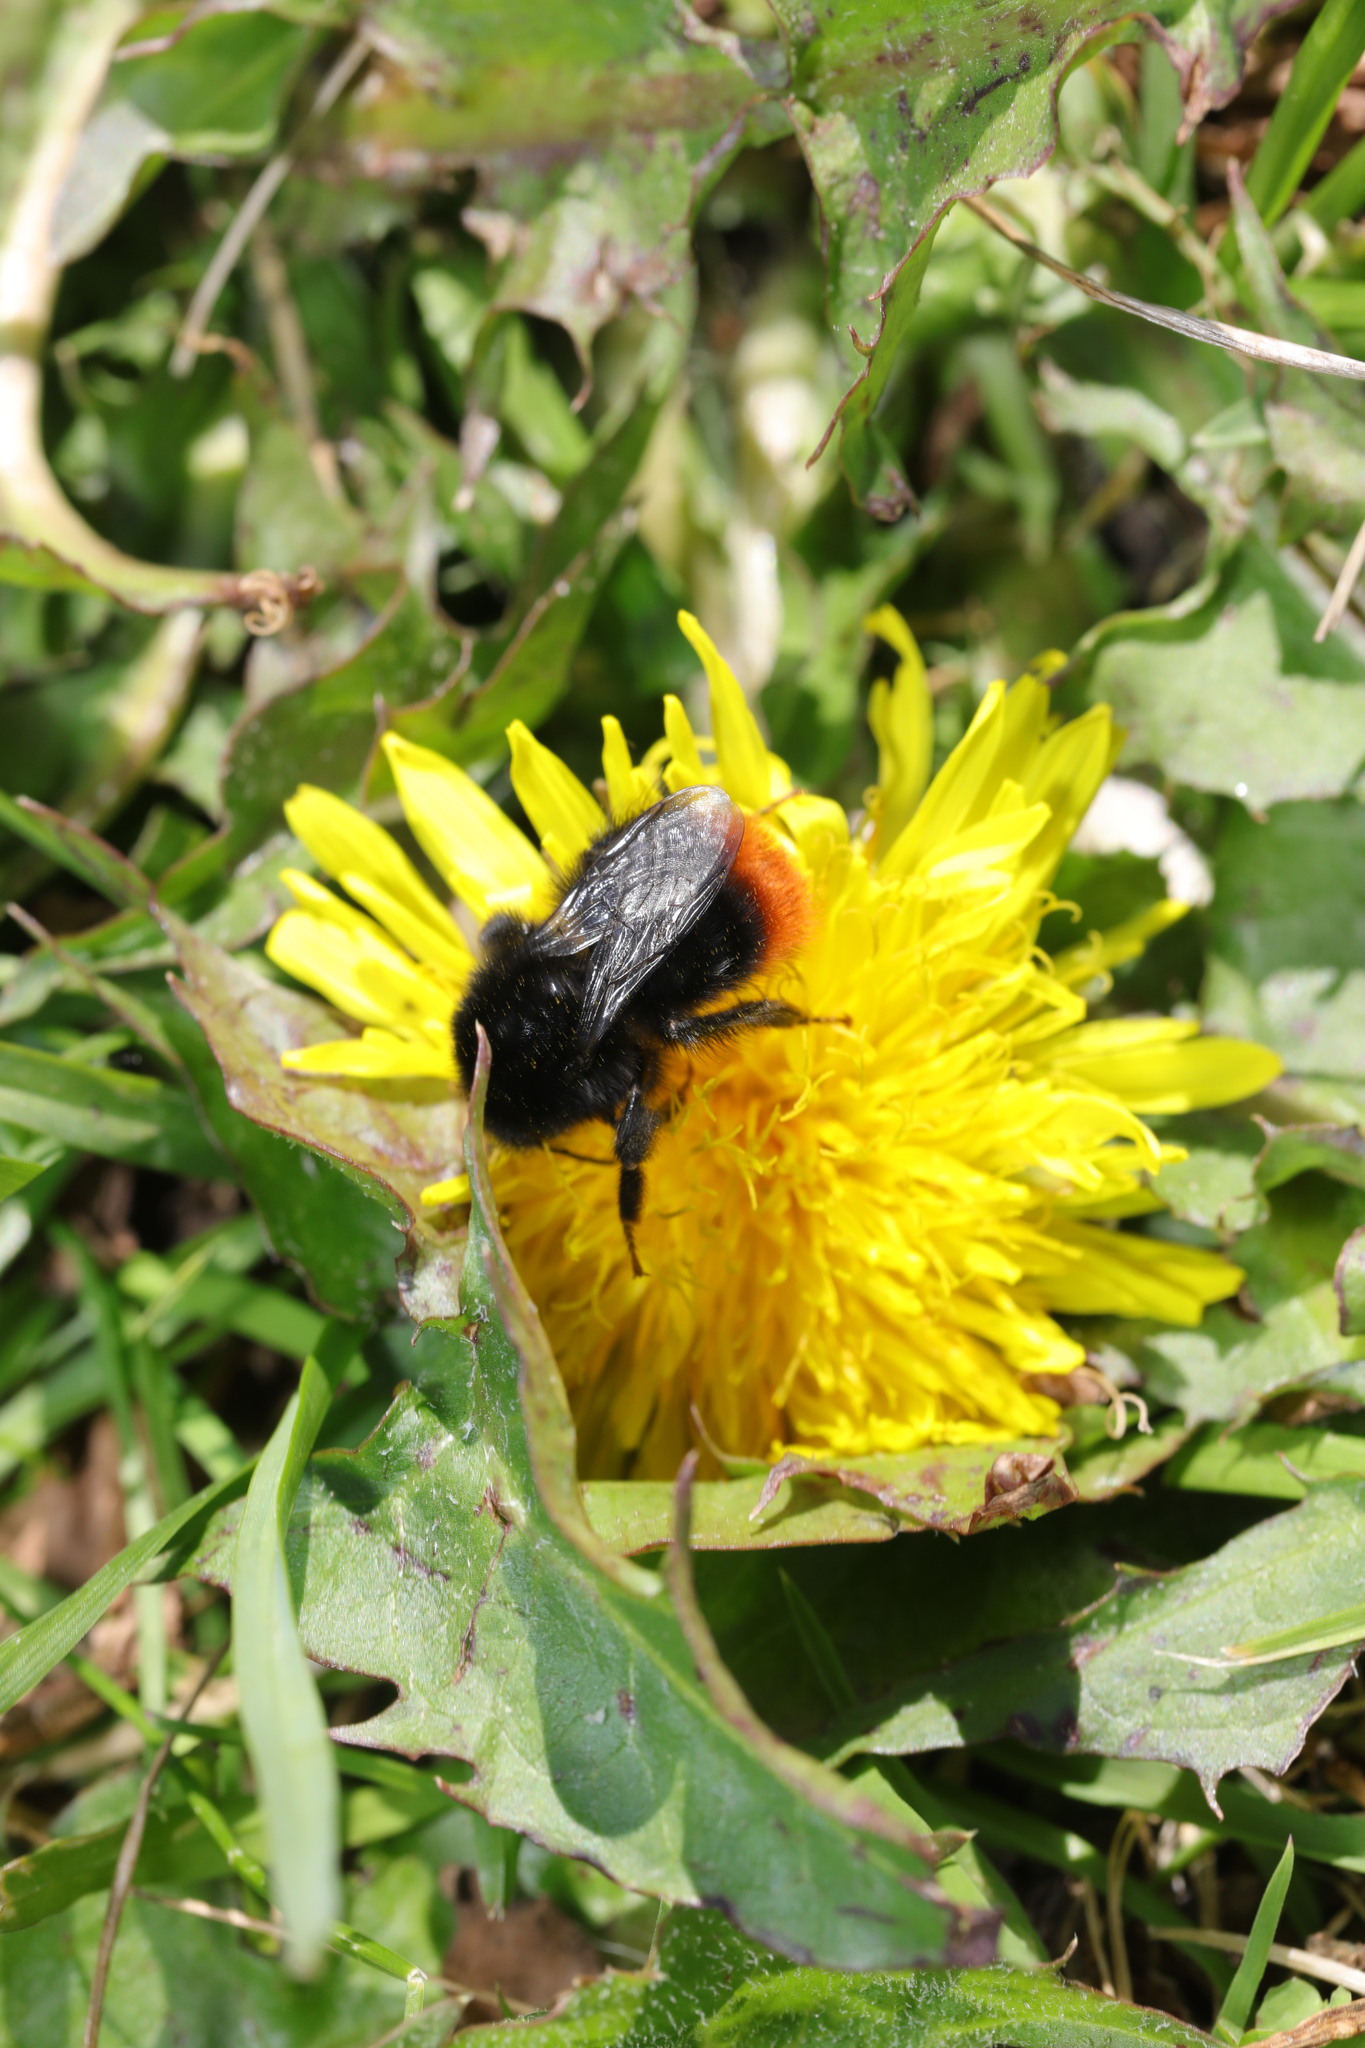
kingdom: Animalia
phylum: Arthropoda
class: Insecta
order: Hymenoptera
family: Apidae
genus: Bombus
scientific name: Bombus lapidarius
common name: Large red-tailed humble-bee
